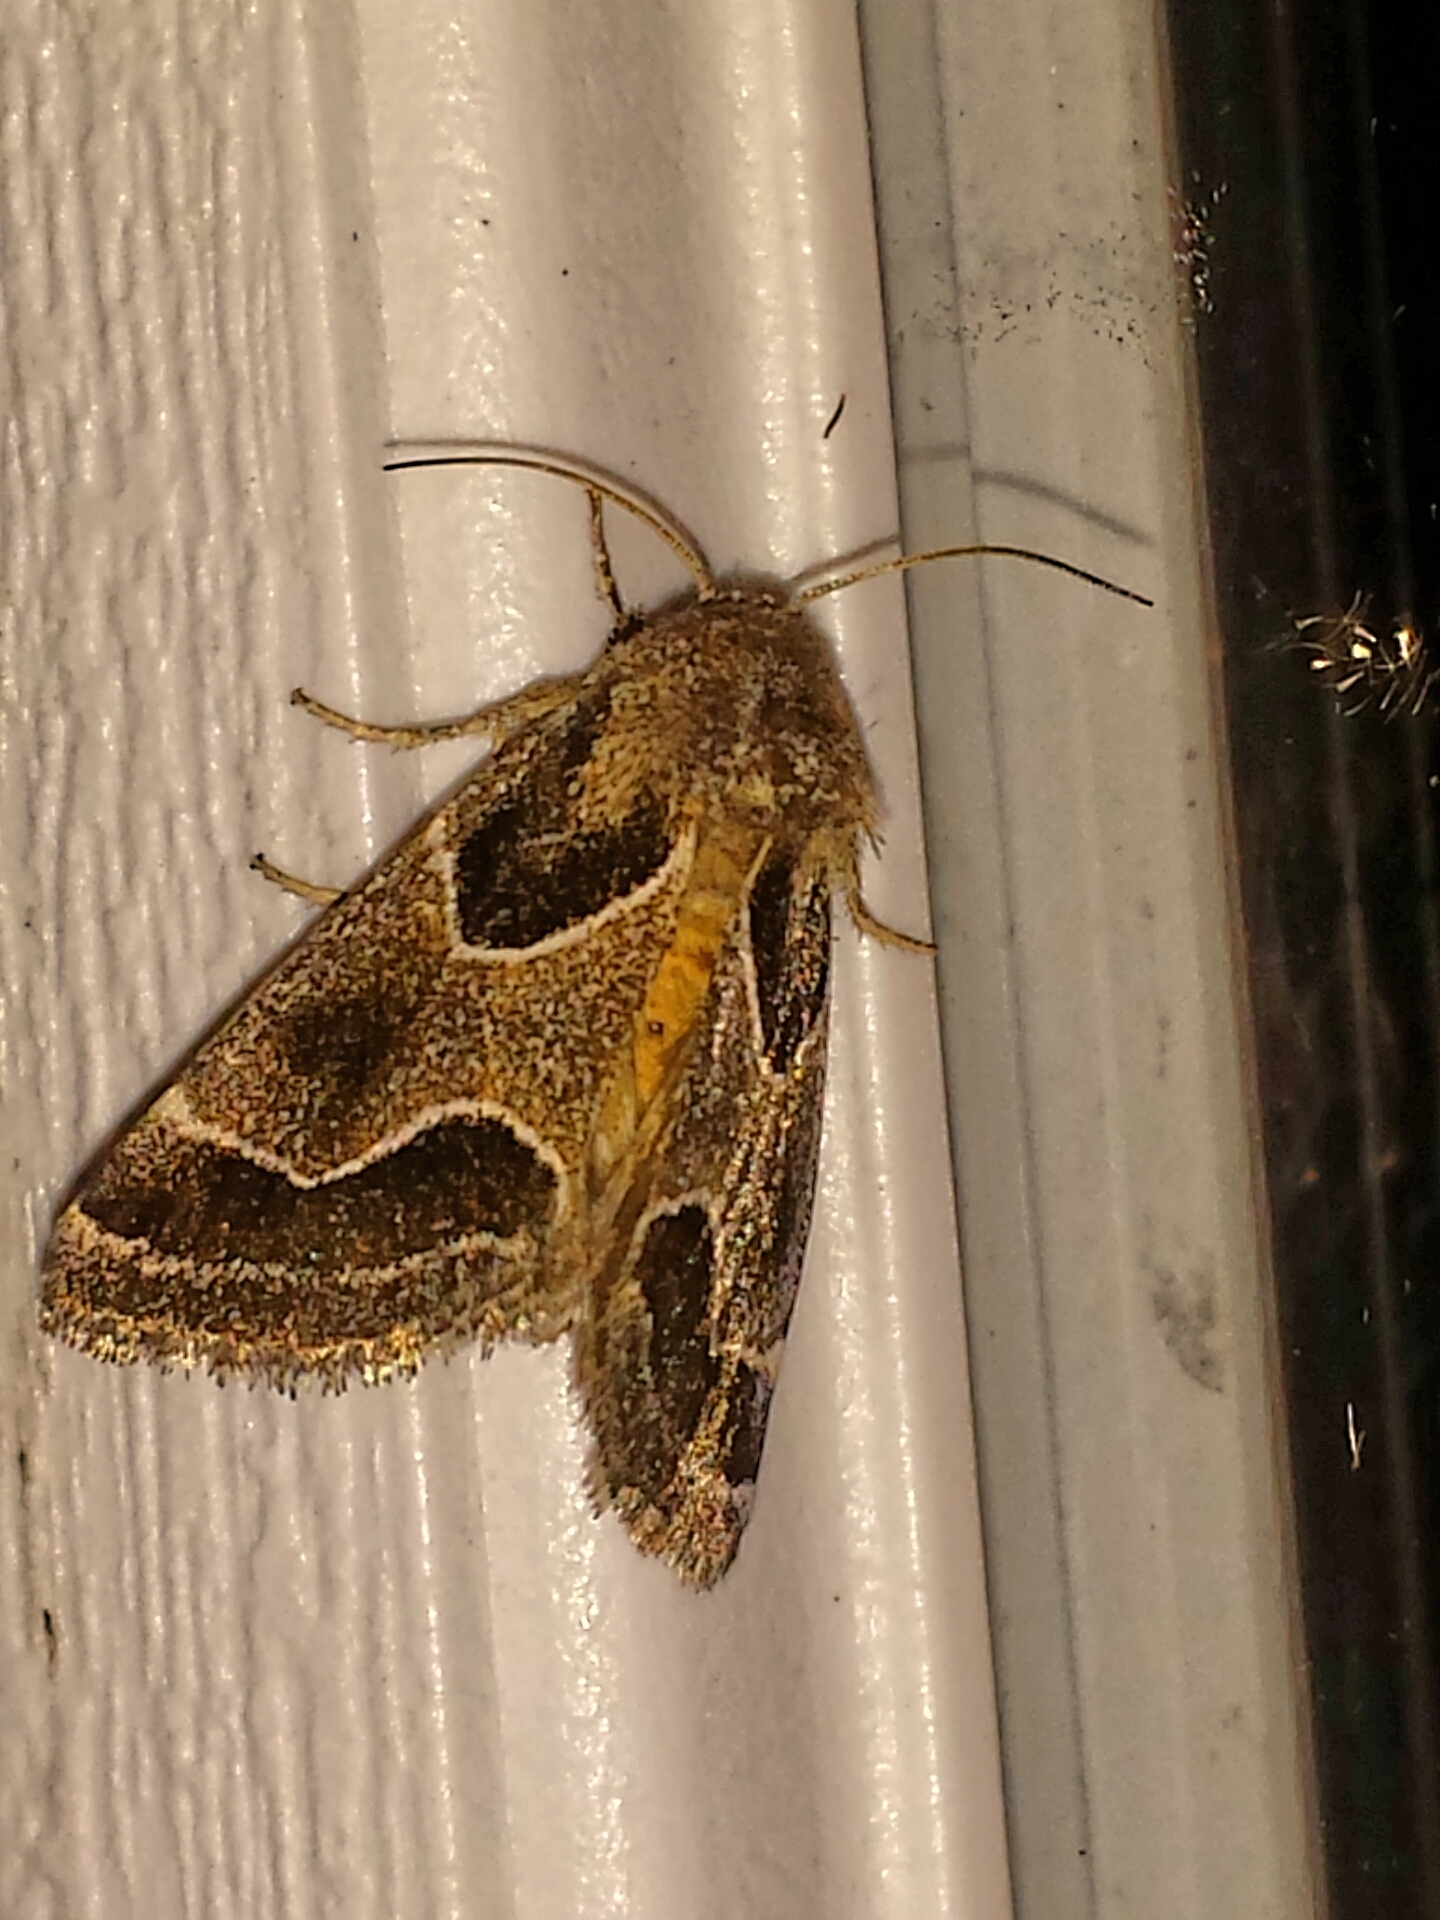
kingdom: Animalia
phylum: Arthropoda
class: Insecta
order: Lepidoptera
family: Noctuidae
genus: Schinia
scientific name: Schinia rivulosa
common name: Scarce meal-moth
